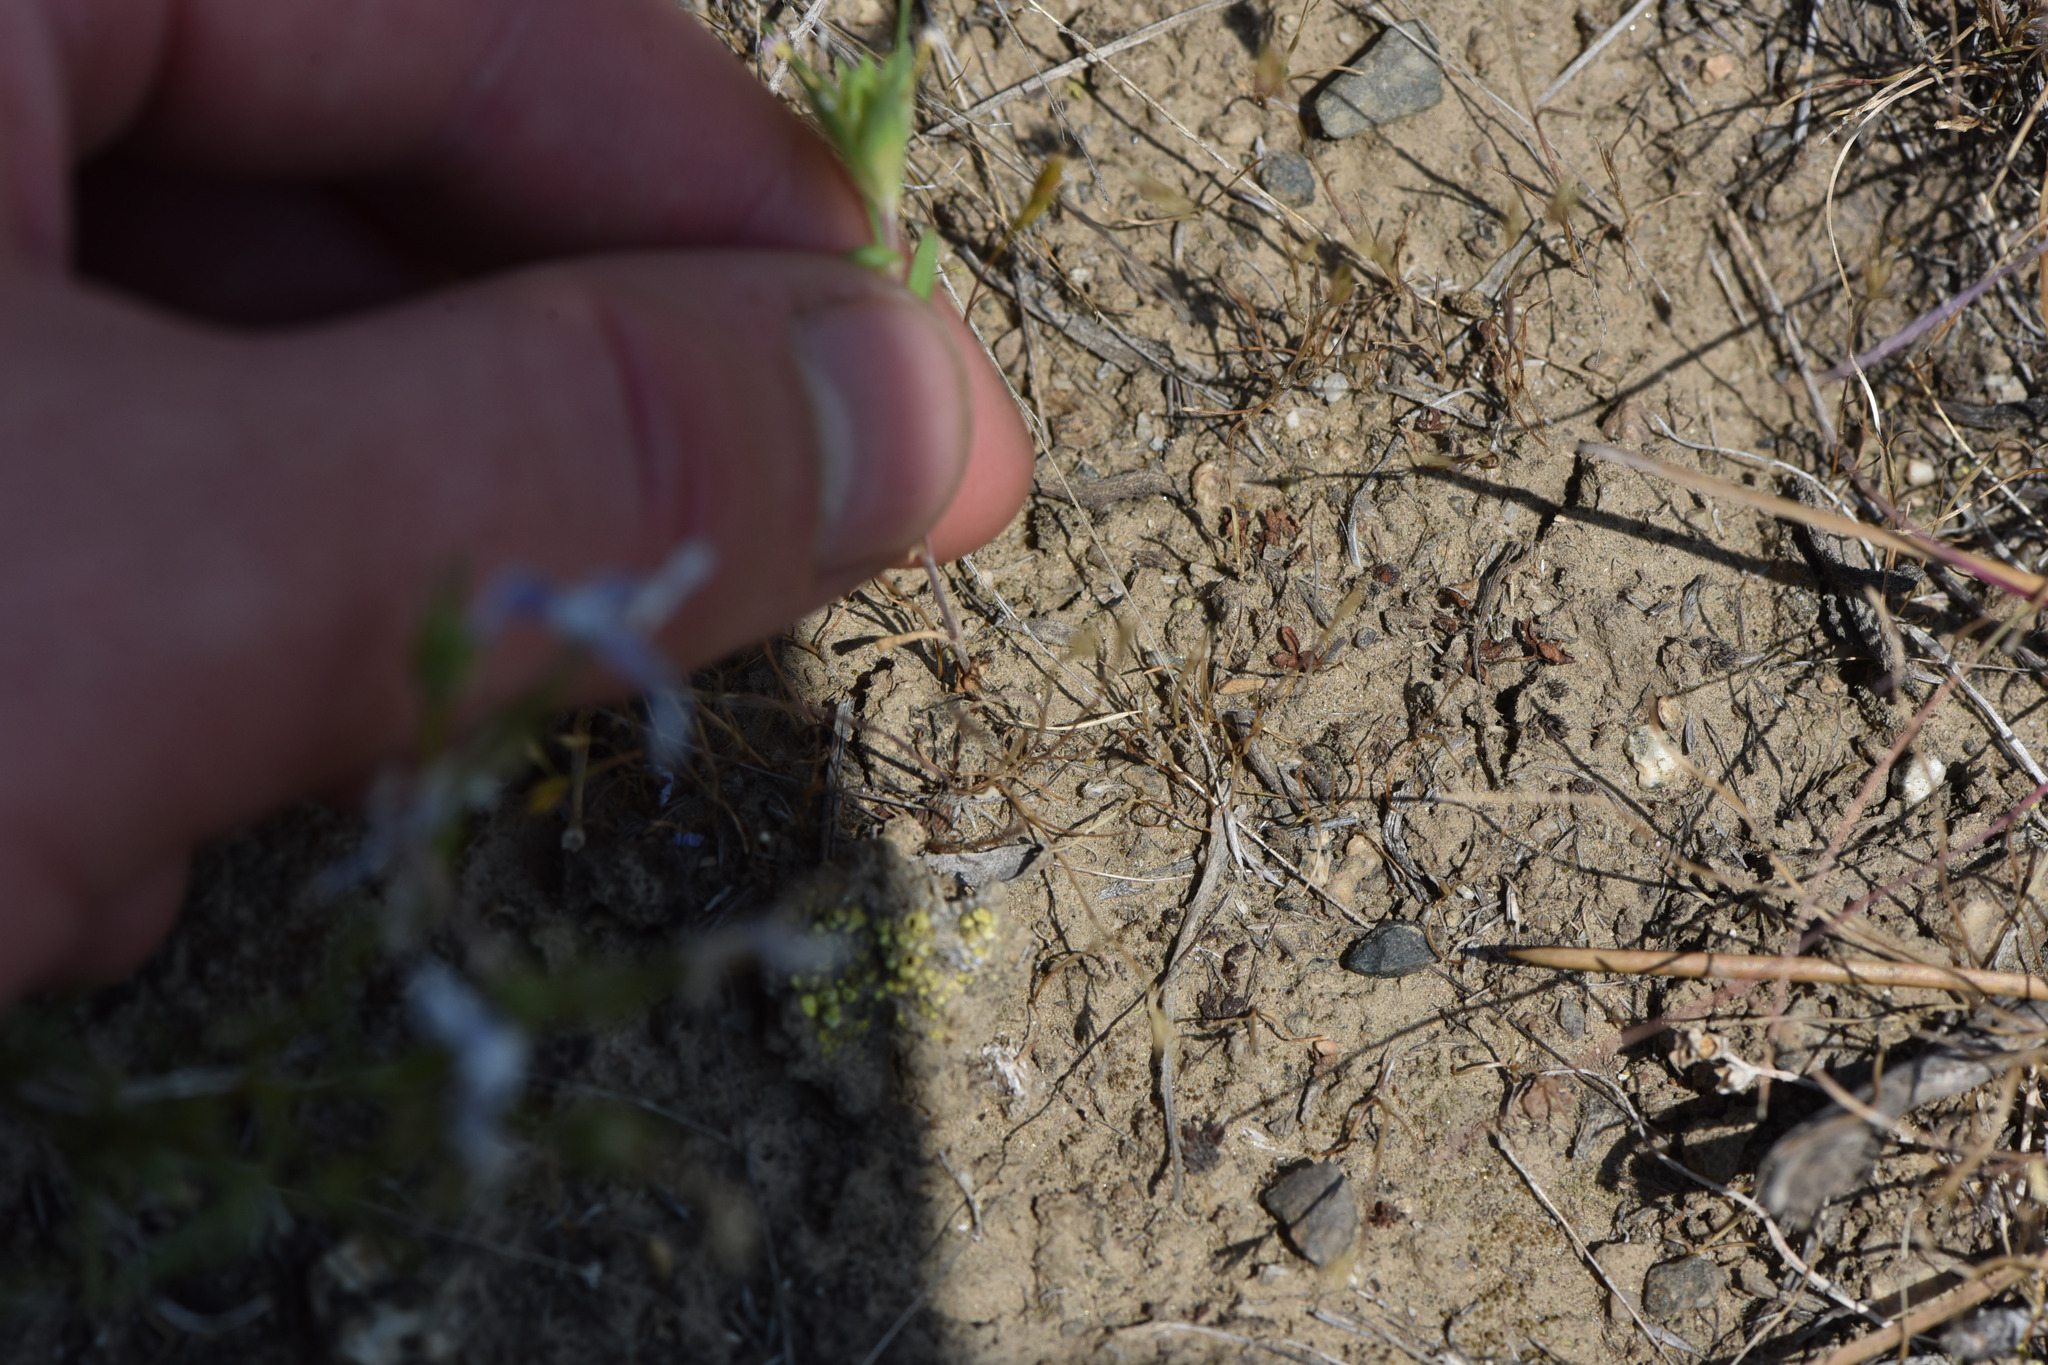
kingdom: Plantae
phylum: Tracheophyta
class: Magnoliopsida
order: Ericales
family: Polemoniaceae
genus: Collomia
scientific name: Collomia linearis
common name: Tiny trumpet
